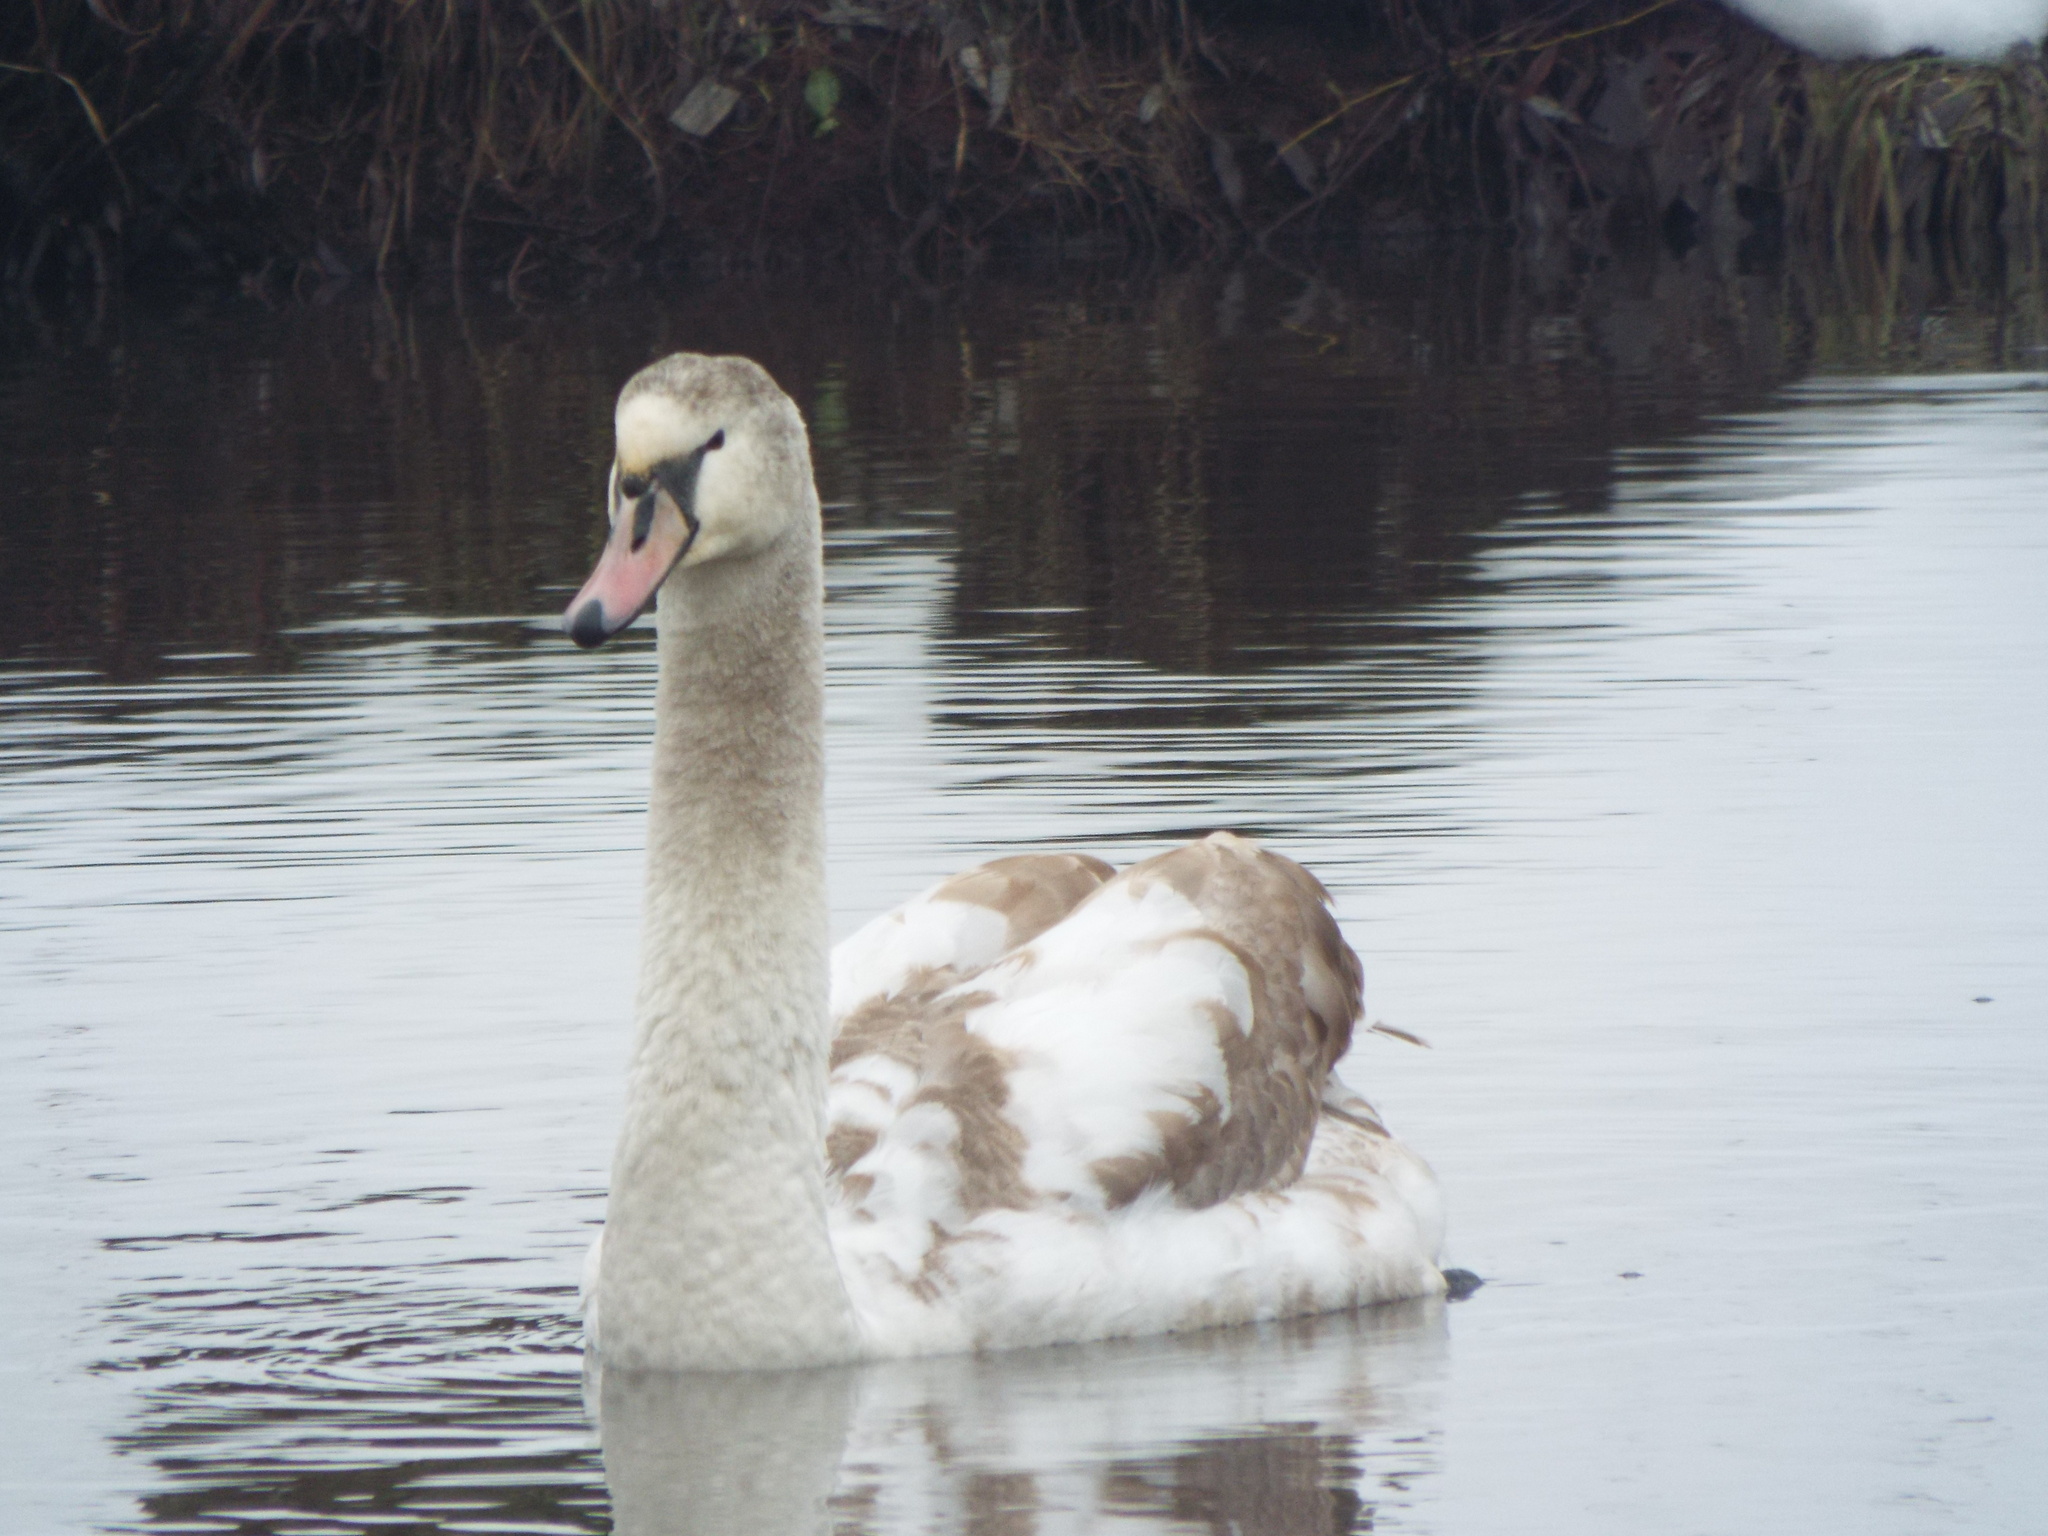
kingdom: Animalia
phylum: Chordata
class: Aves
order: Anseriformes
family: Anatidae
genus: Cygnus
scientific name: Cygnus olor
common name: Mute swan
